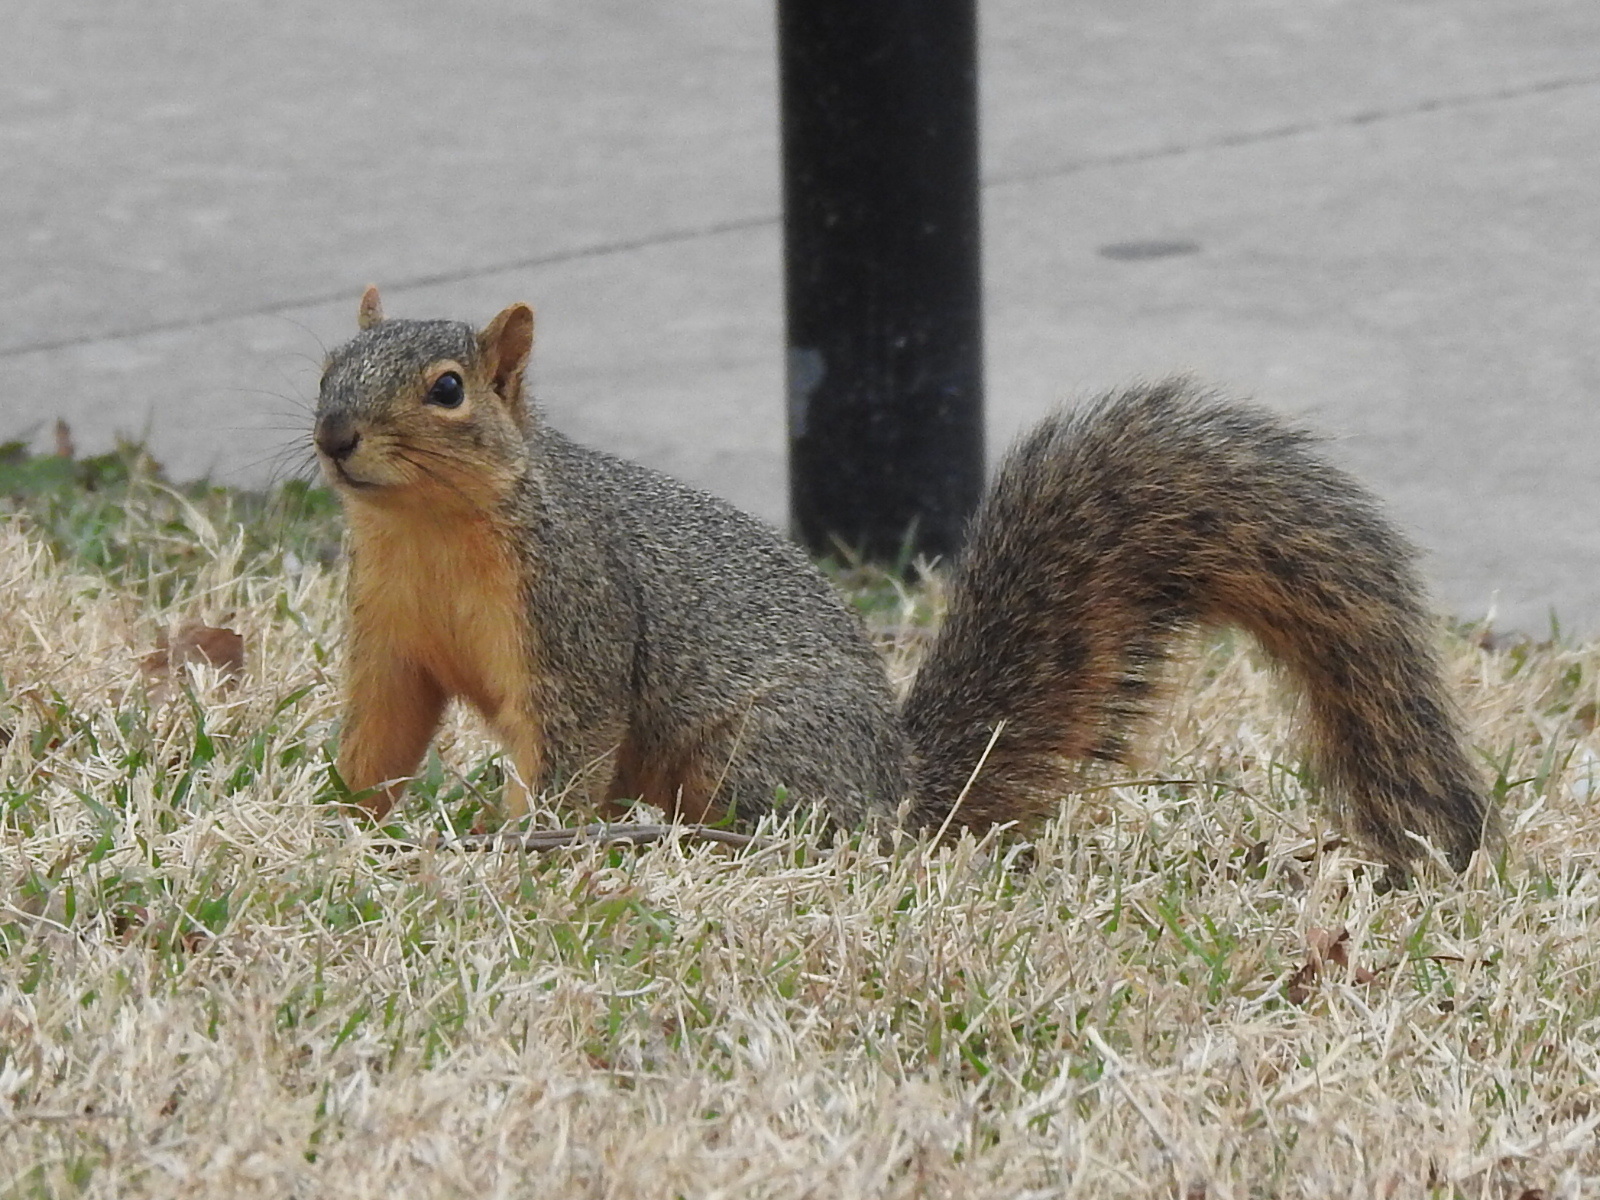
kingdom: Animalia
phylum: Chordata
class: Mammalia
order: Rodentia
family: Sciuridae
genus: Sciurus
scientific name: Sciurus niger
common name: Fox squirrel
